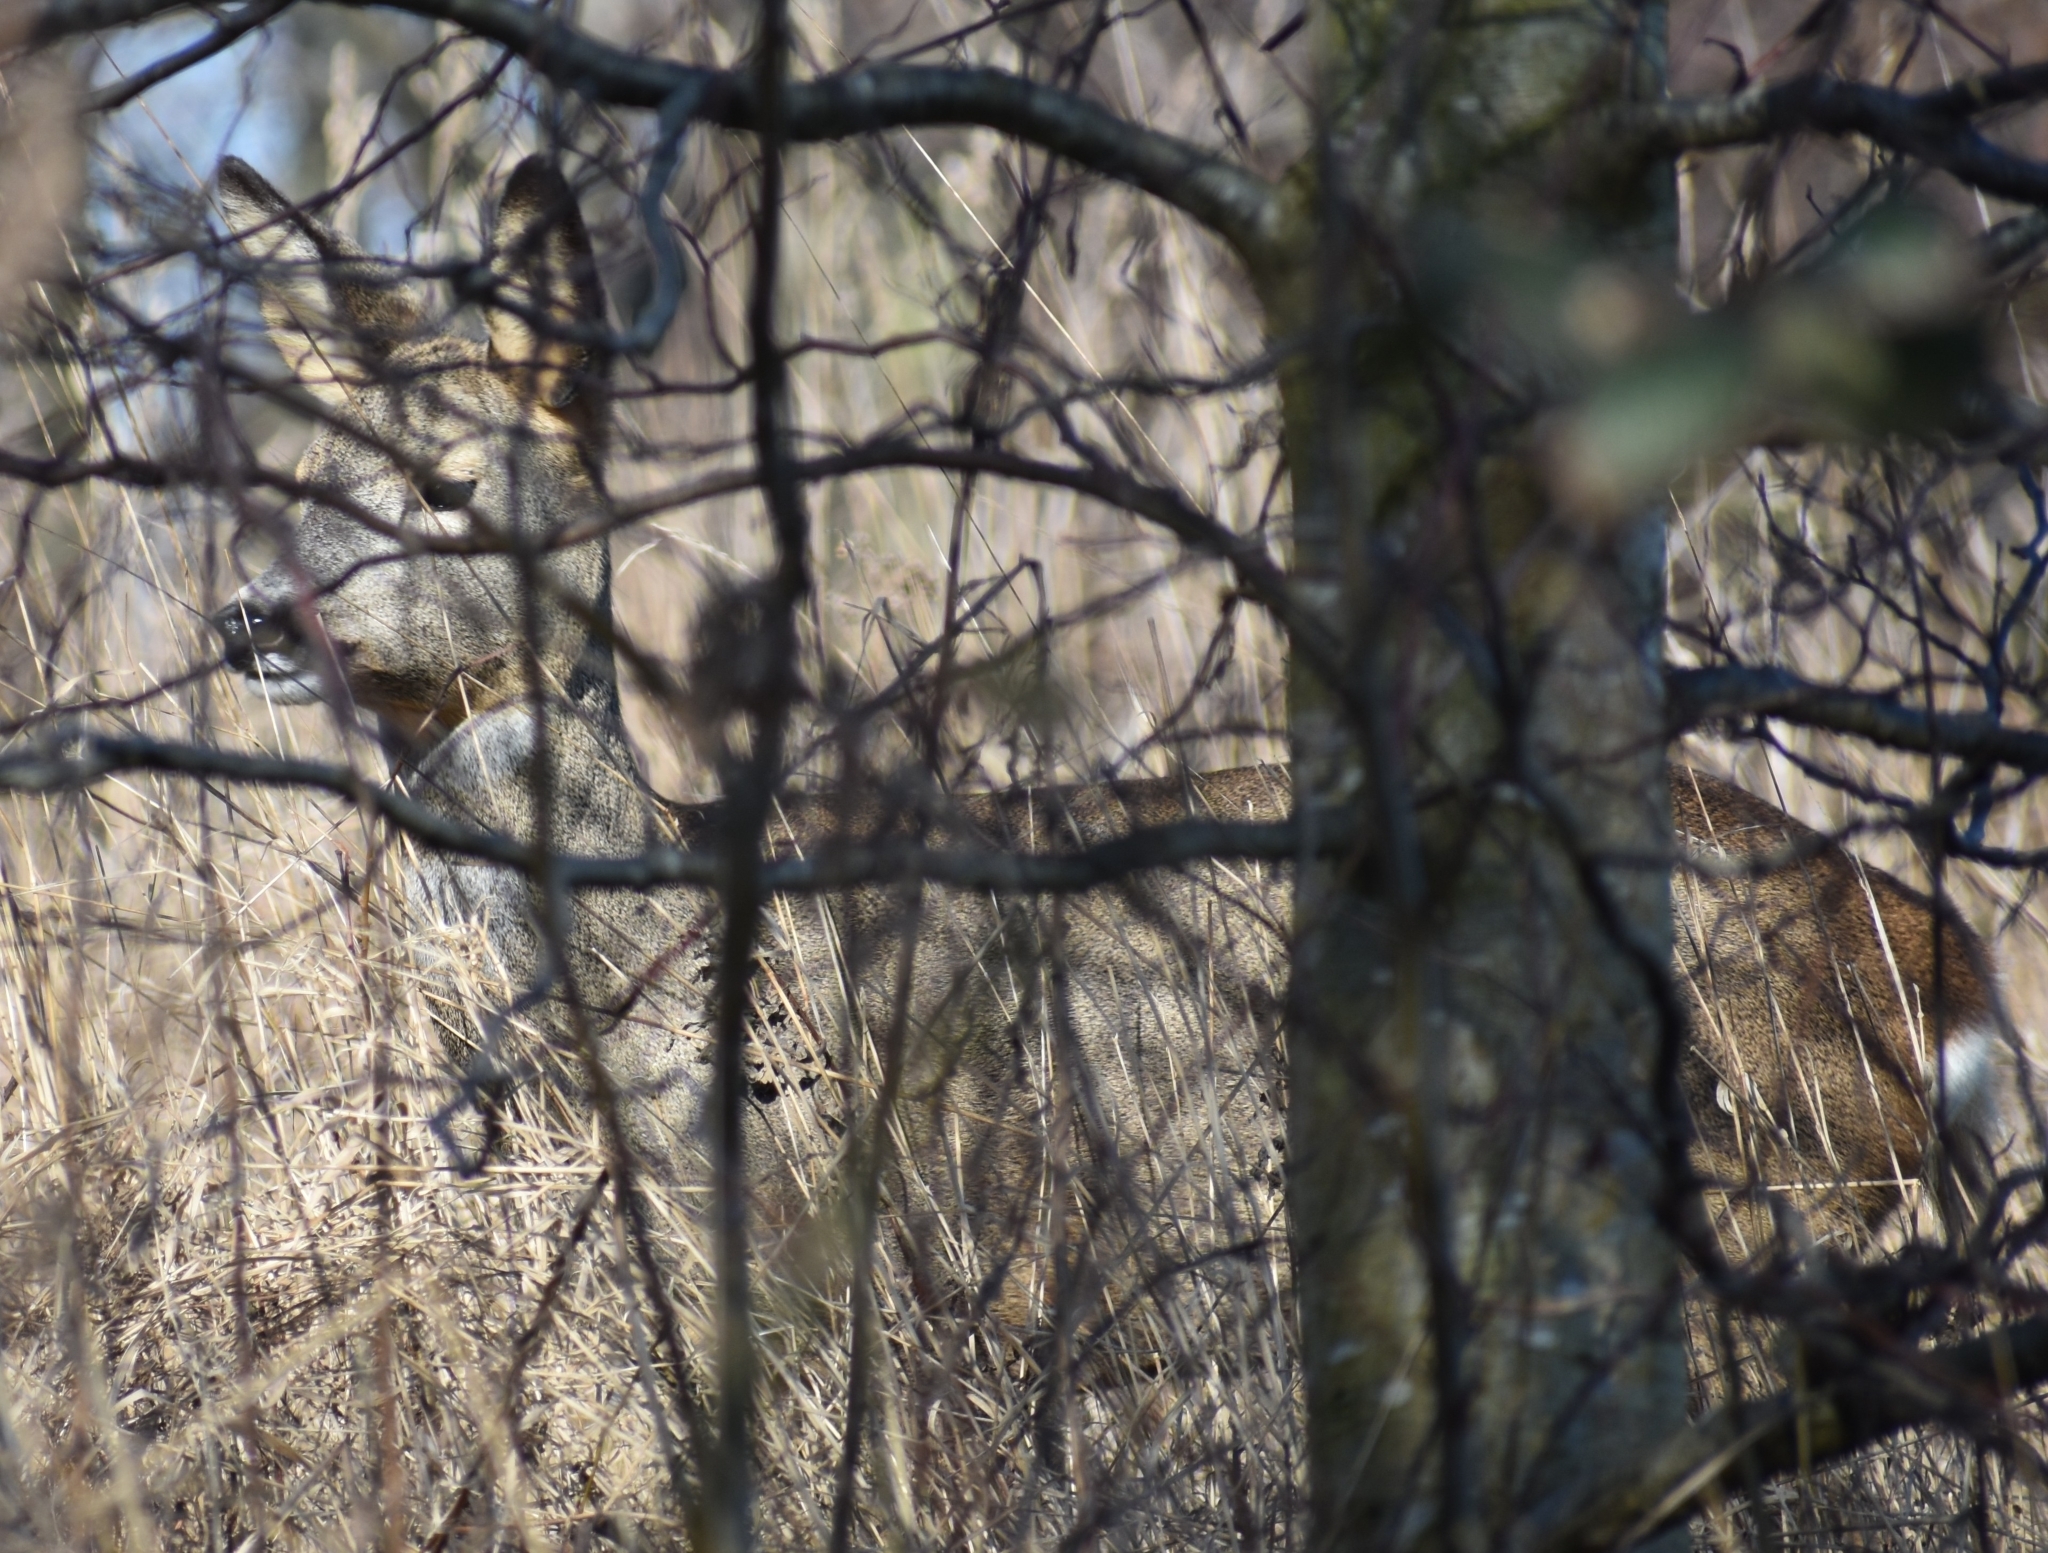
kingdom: Animalia
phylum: Chordata
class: Mammalia
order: Artiodactyla
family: Cervidae
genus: Capreolus
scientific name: Capreolus capreolus
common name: Western roe deer
